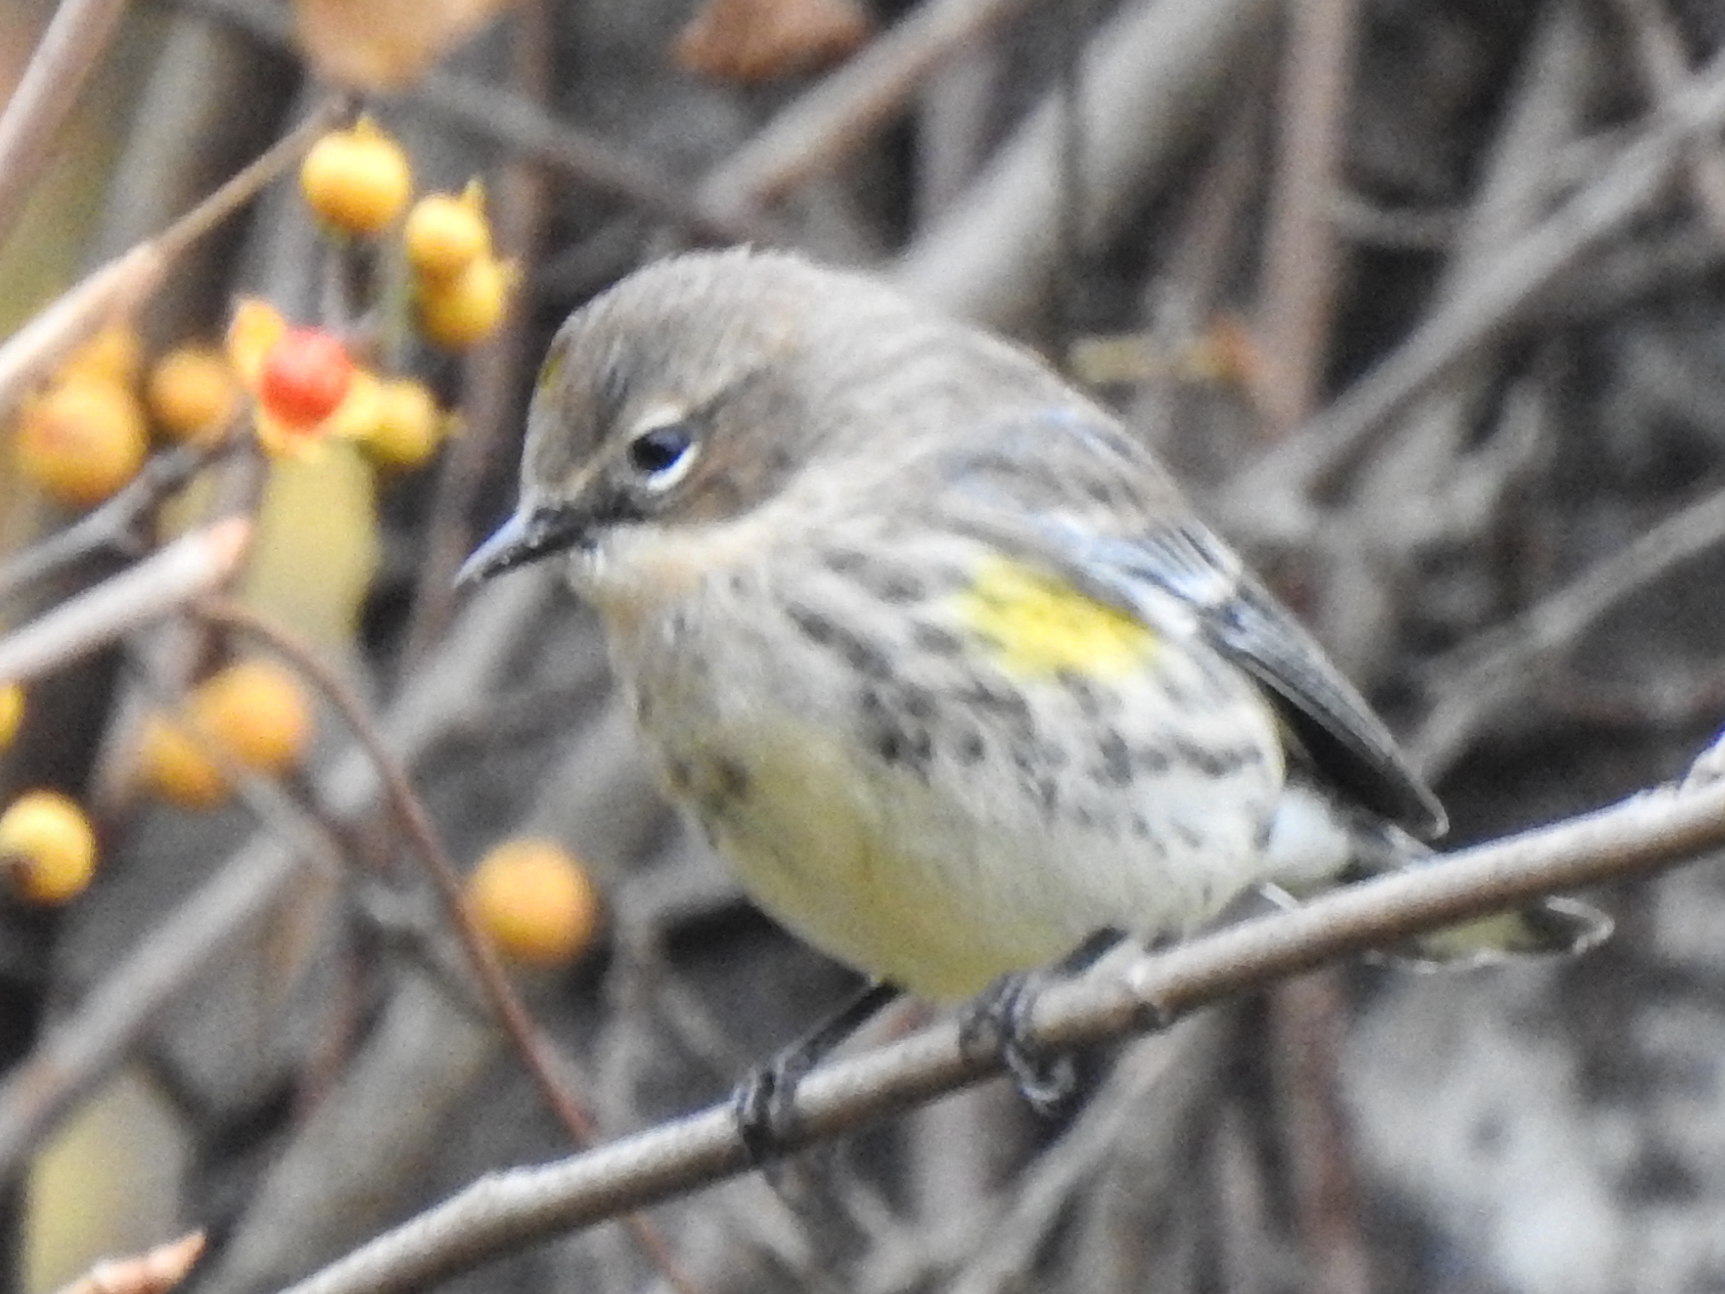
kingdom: Animalia
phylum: Chordata
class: Aves
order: Passeriformes
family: Parulidae
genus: Setophaga
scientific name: Setophaga coronata
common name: Myrtle warbler
